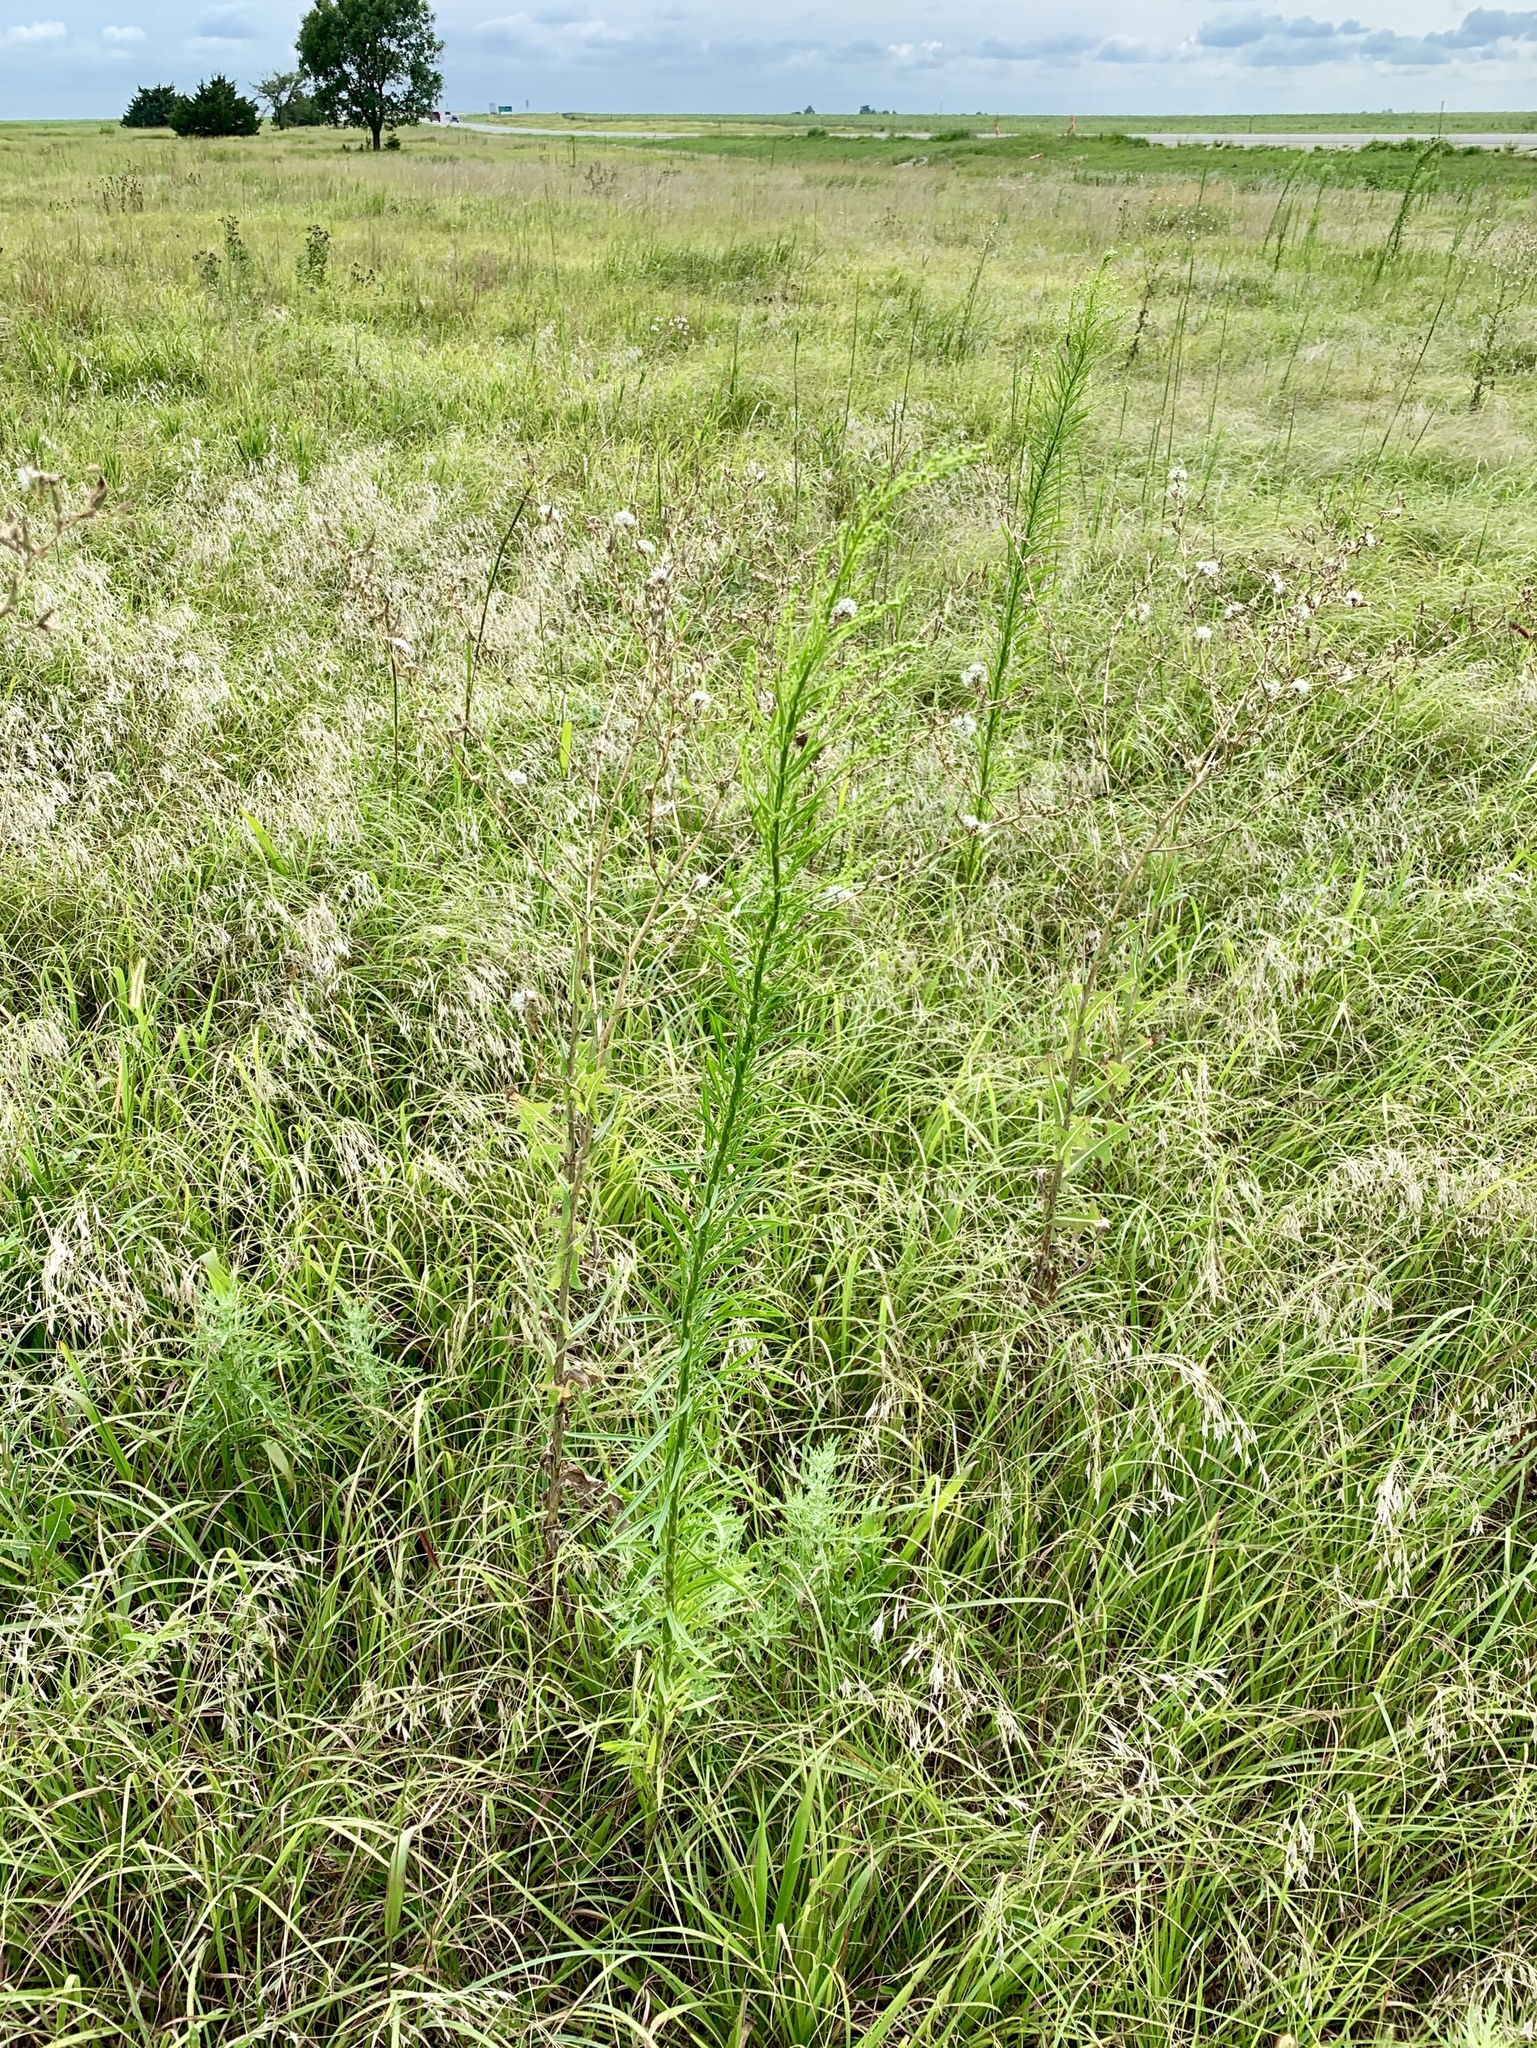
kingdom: Plantae
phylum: Tracheophyta
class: Magnoliopsida
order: Asterales
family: Asteraceae
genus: Erigeron
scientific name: Erigeron canadensis
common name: Canadian fleabane
